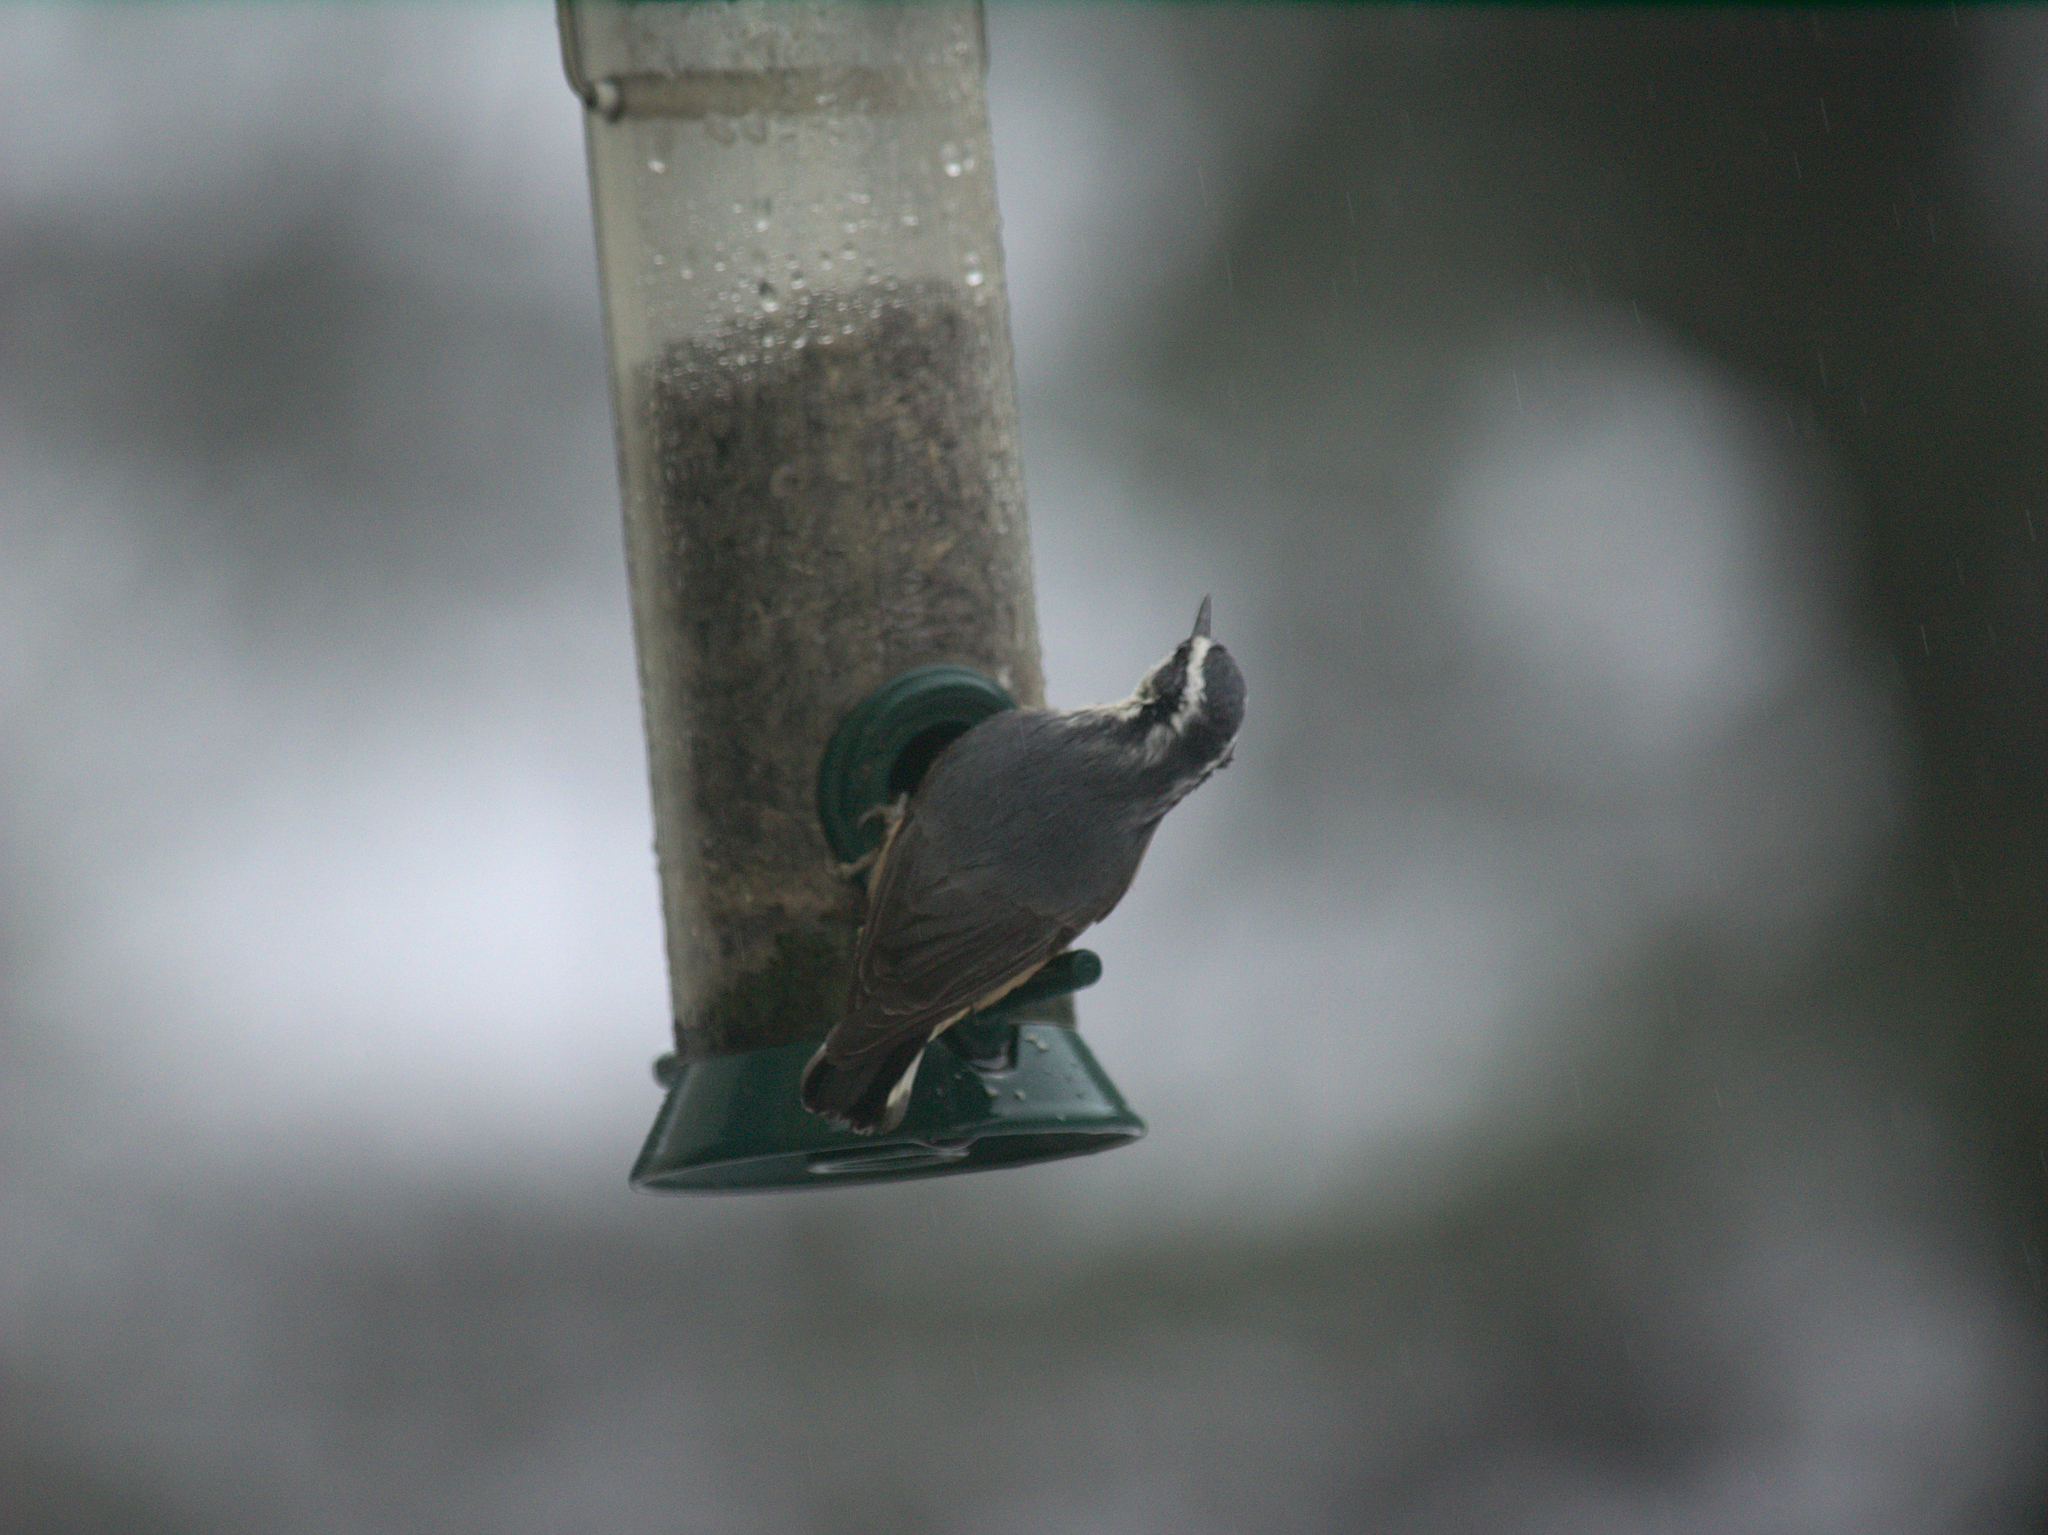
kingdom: Animalia
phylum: Chordata
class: Aves
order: Passeriformes
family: Sittidae
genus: Sitta
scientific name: Sitta canadensis
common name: Red-breasted nuthatch
